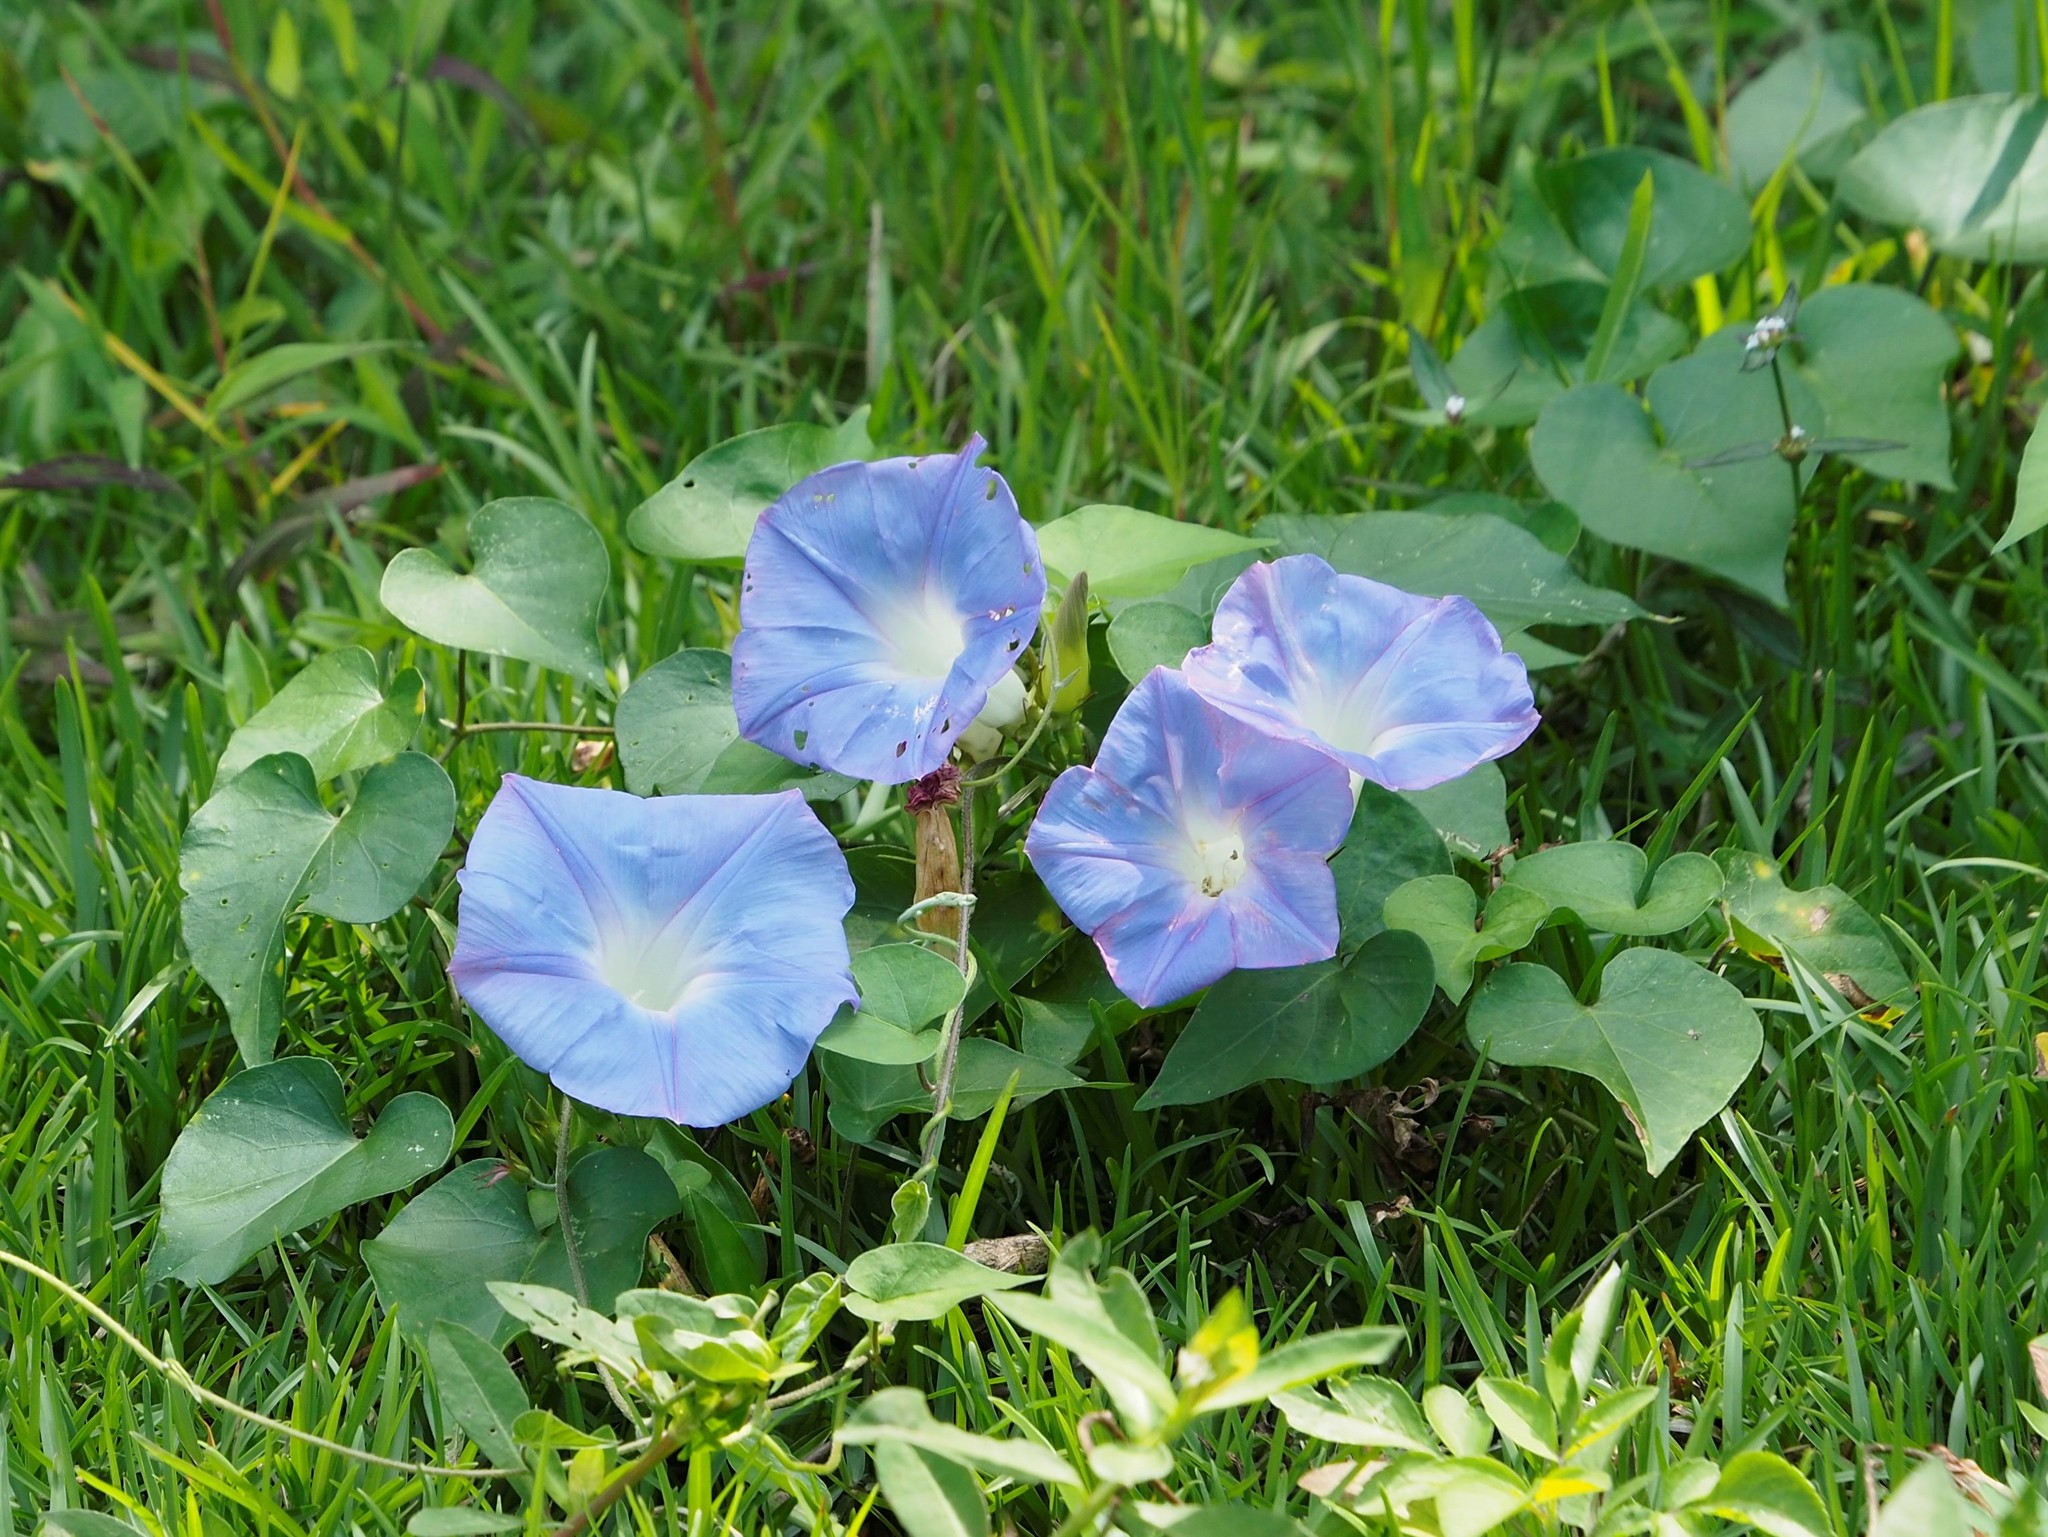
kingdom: Plantae
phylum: Tracheophyta
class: Magnoliopsida
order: Solanales
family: Convolvulaceae
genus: Ipomoea
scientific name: Ipomoea indica
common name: Blue dawnflower
